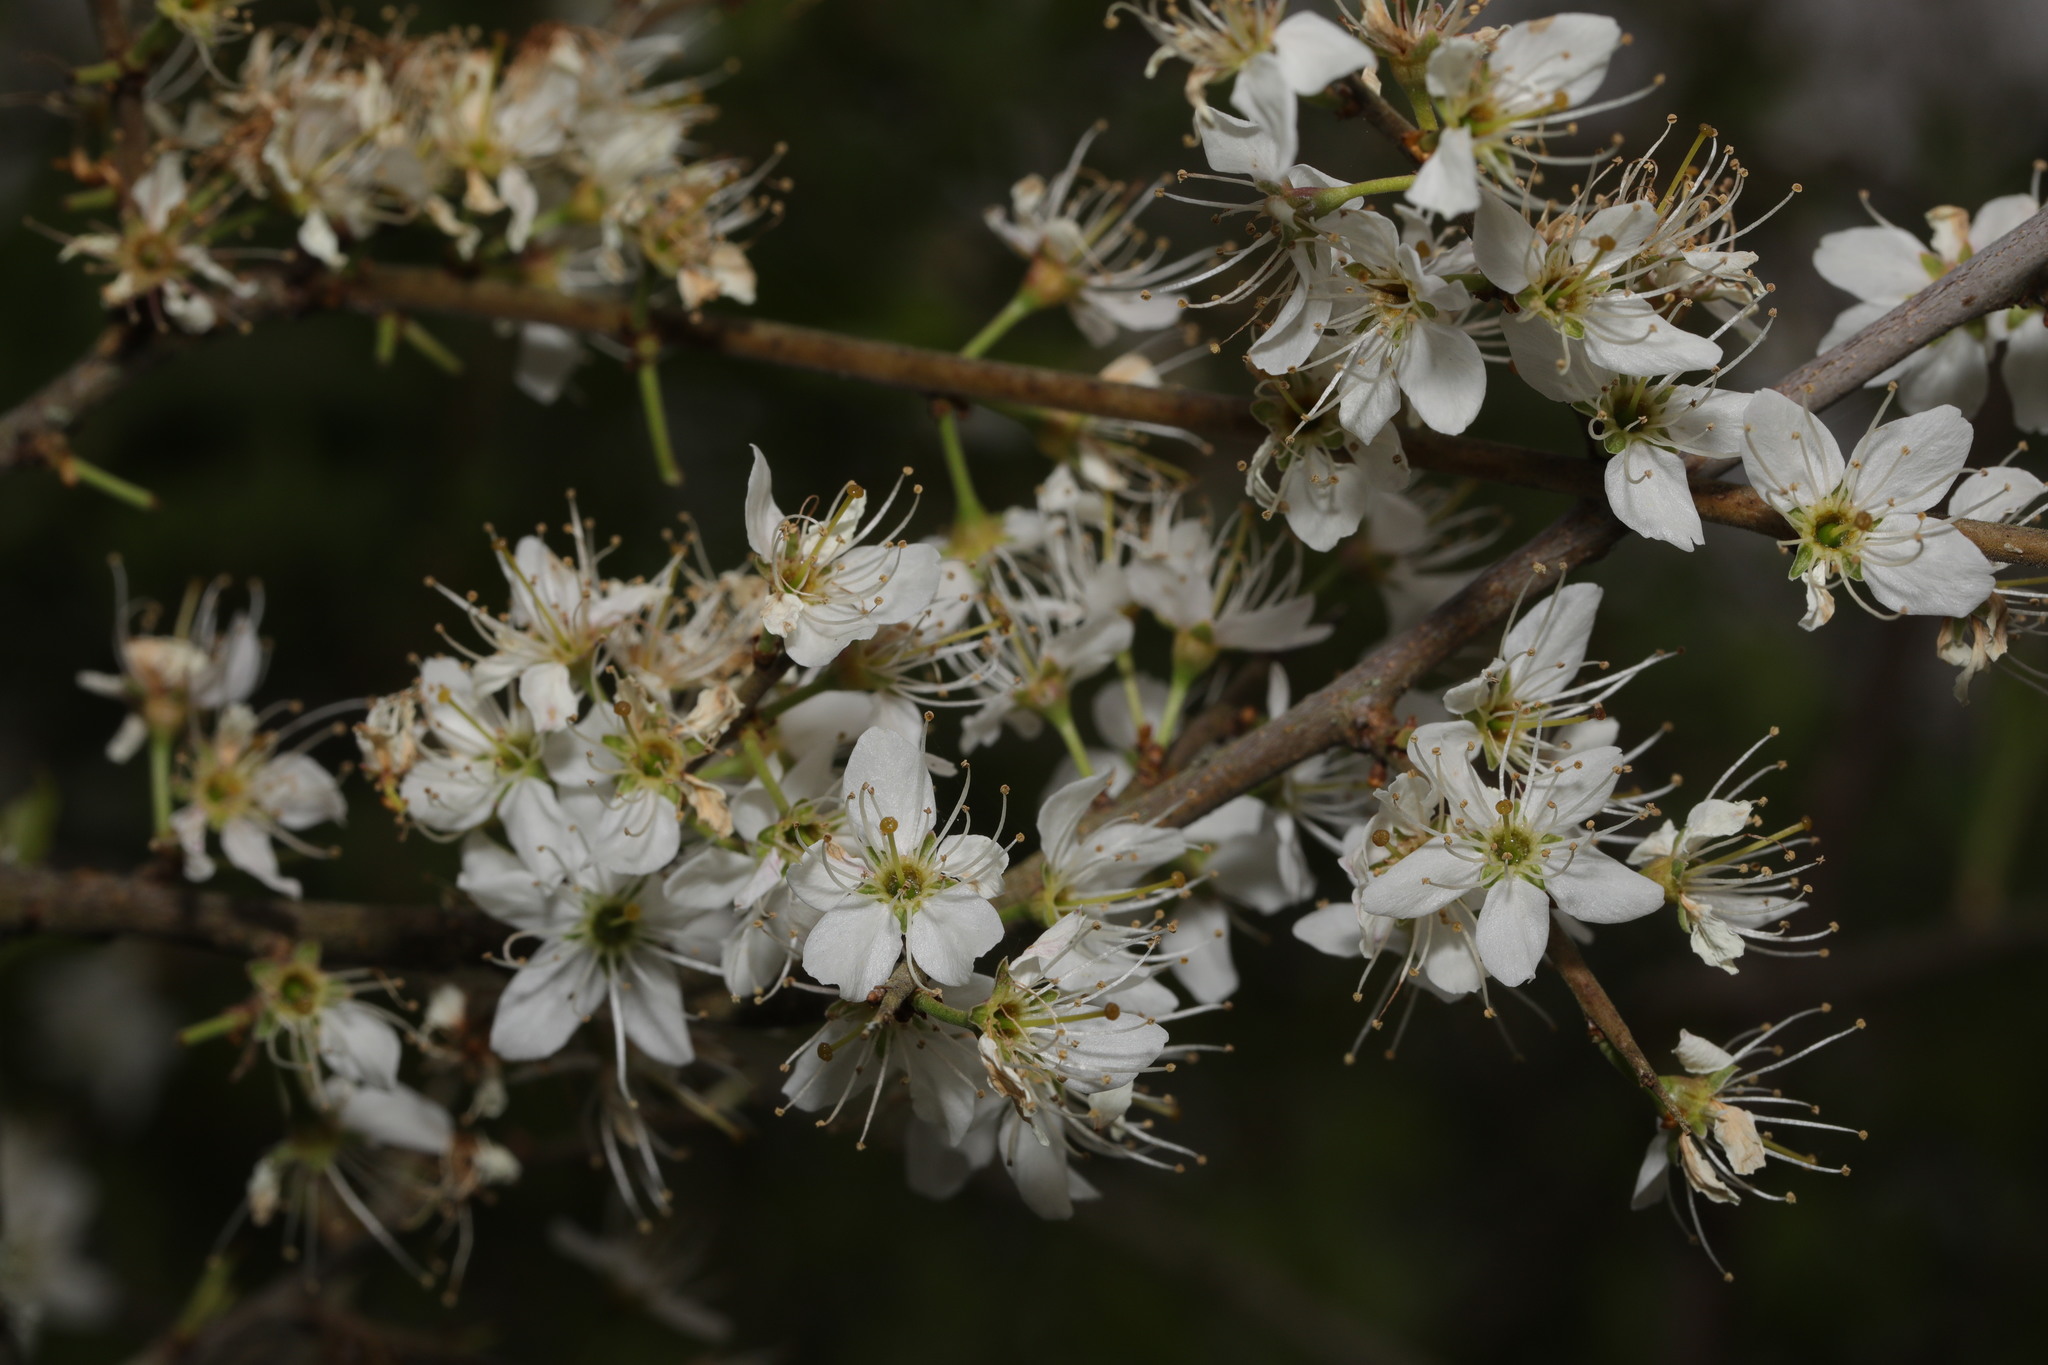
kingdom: Plantae
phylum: Tracheophyta
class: Magnoliopsida
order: Rosales
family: Rosaceae
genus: Prunus
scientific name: Prunus spinosa
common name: Blackthorn
